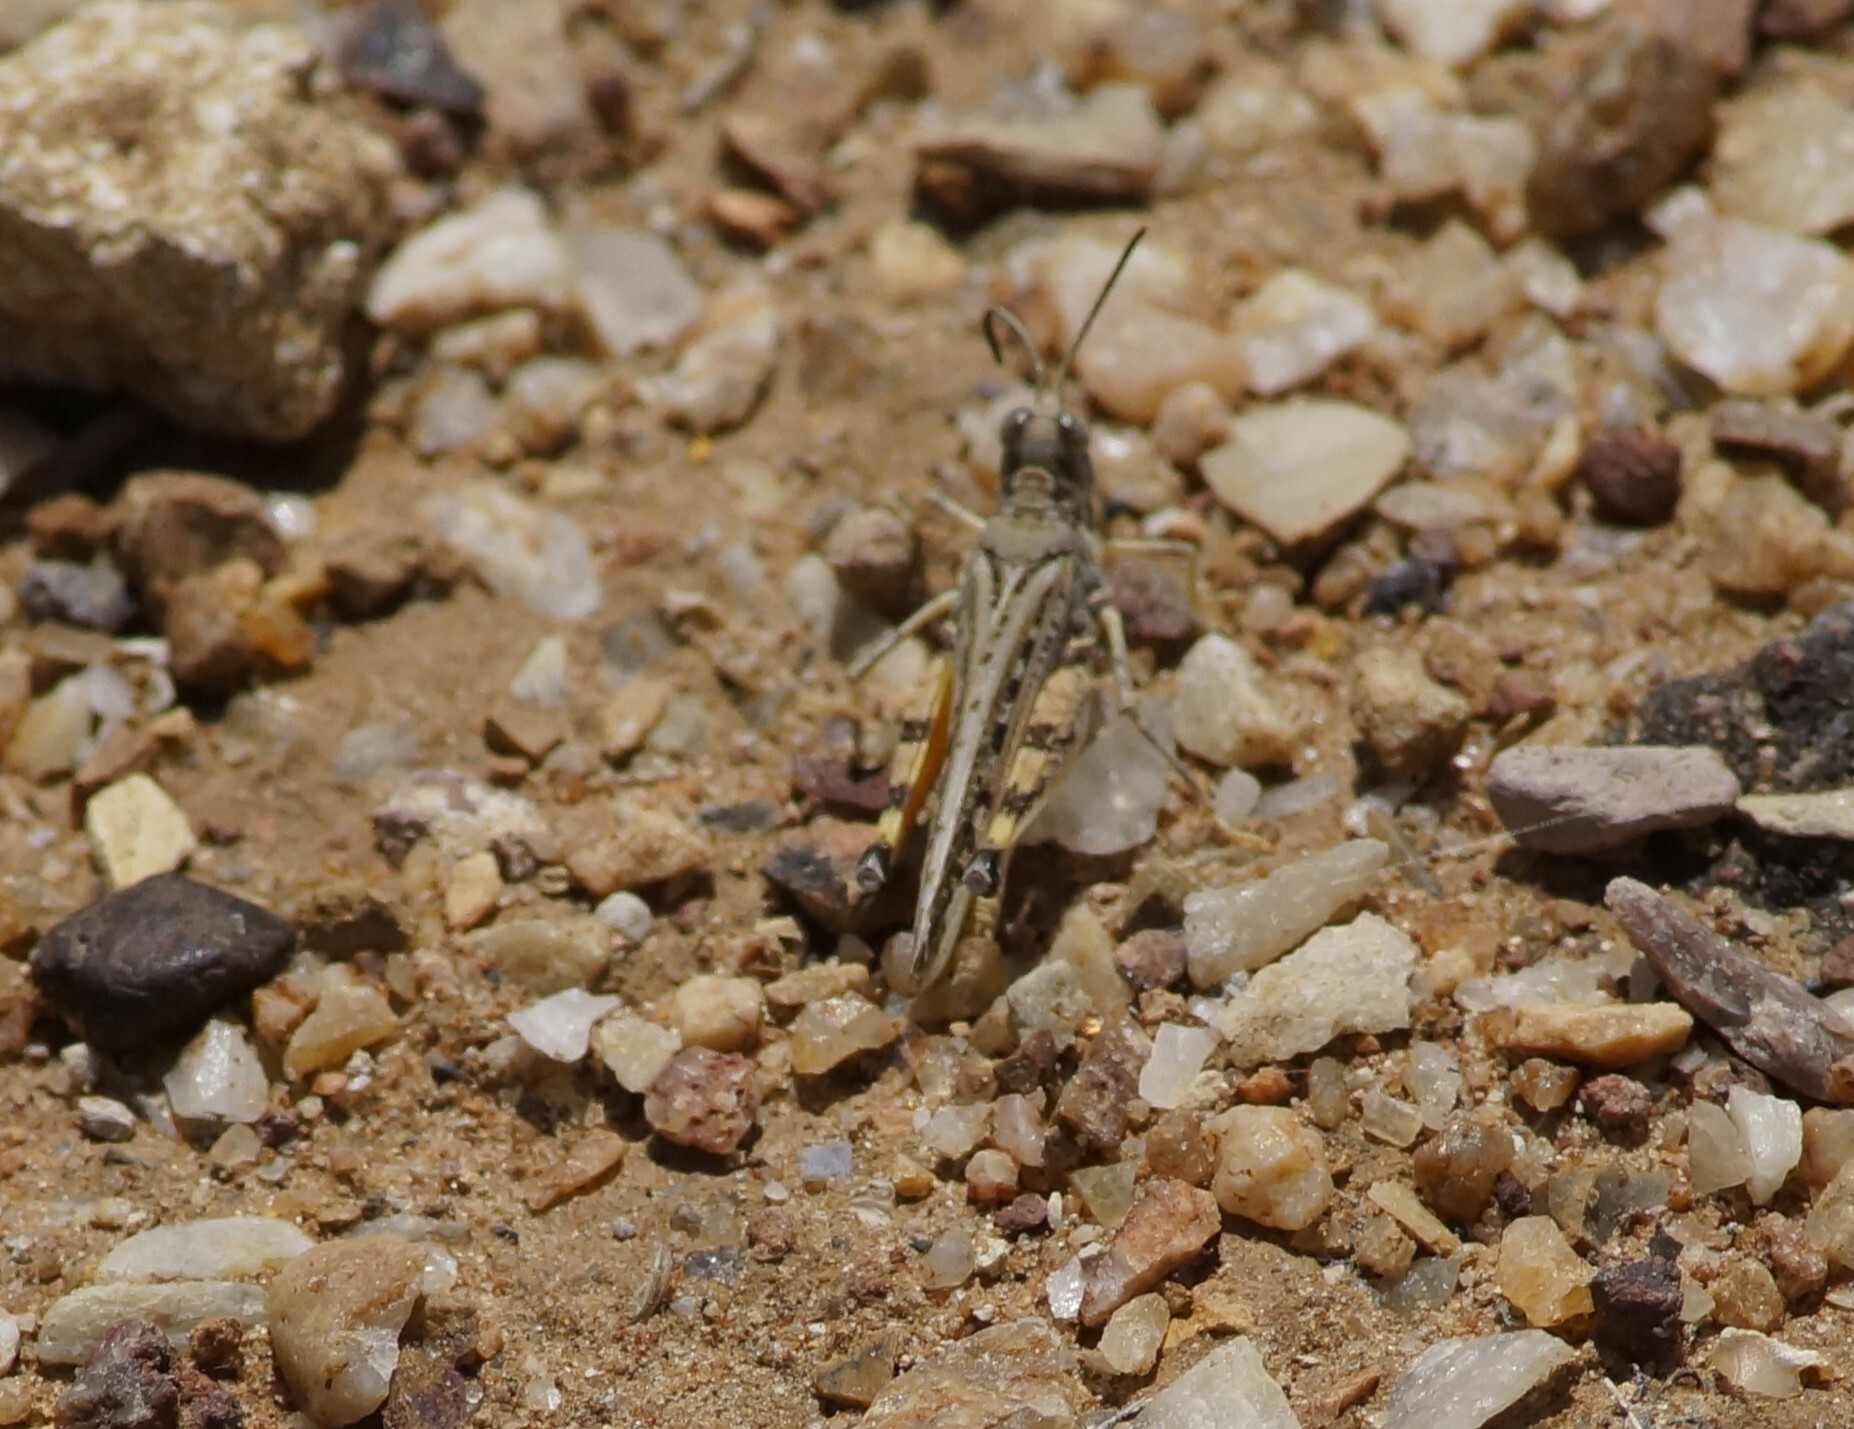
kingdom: Animalia
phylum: Arthropoda
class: Insecta
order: Orthoptera
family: Acrididae
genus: Urnisa
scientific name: Urnisa guttulosa
